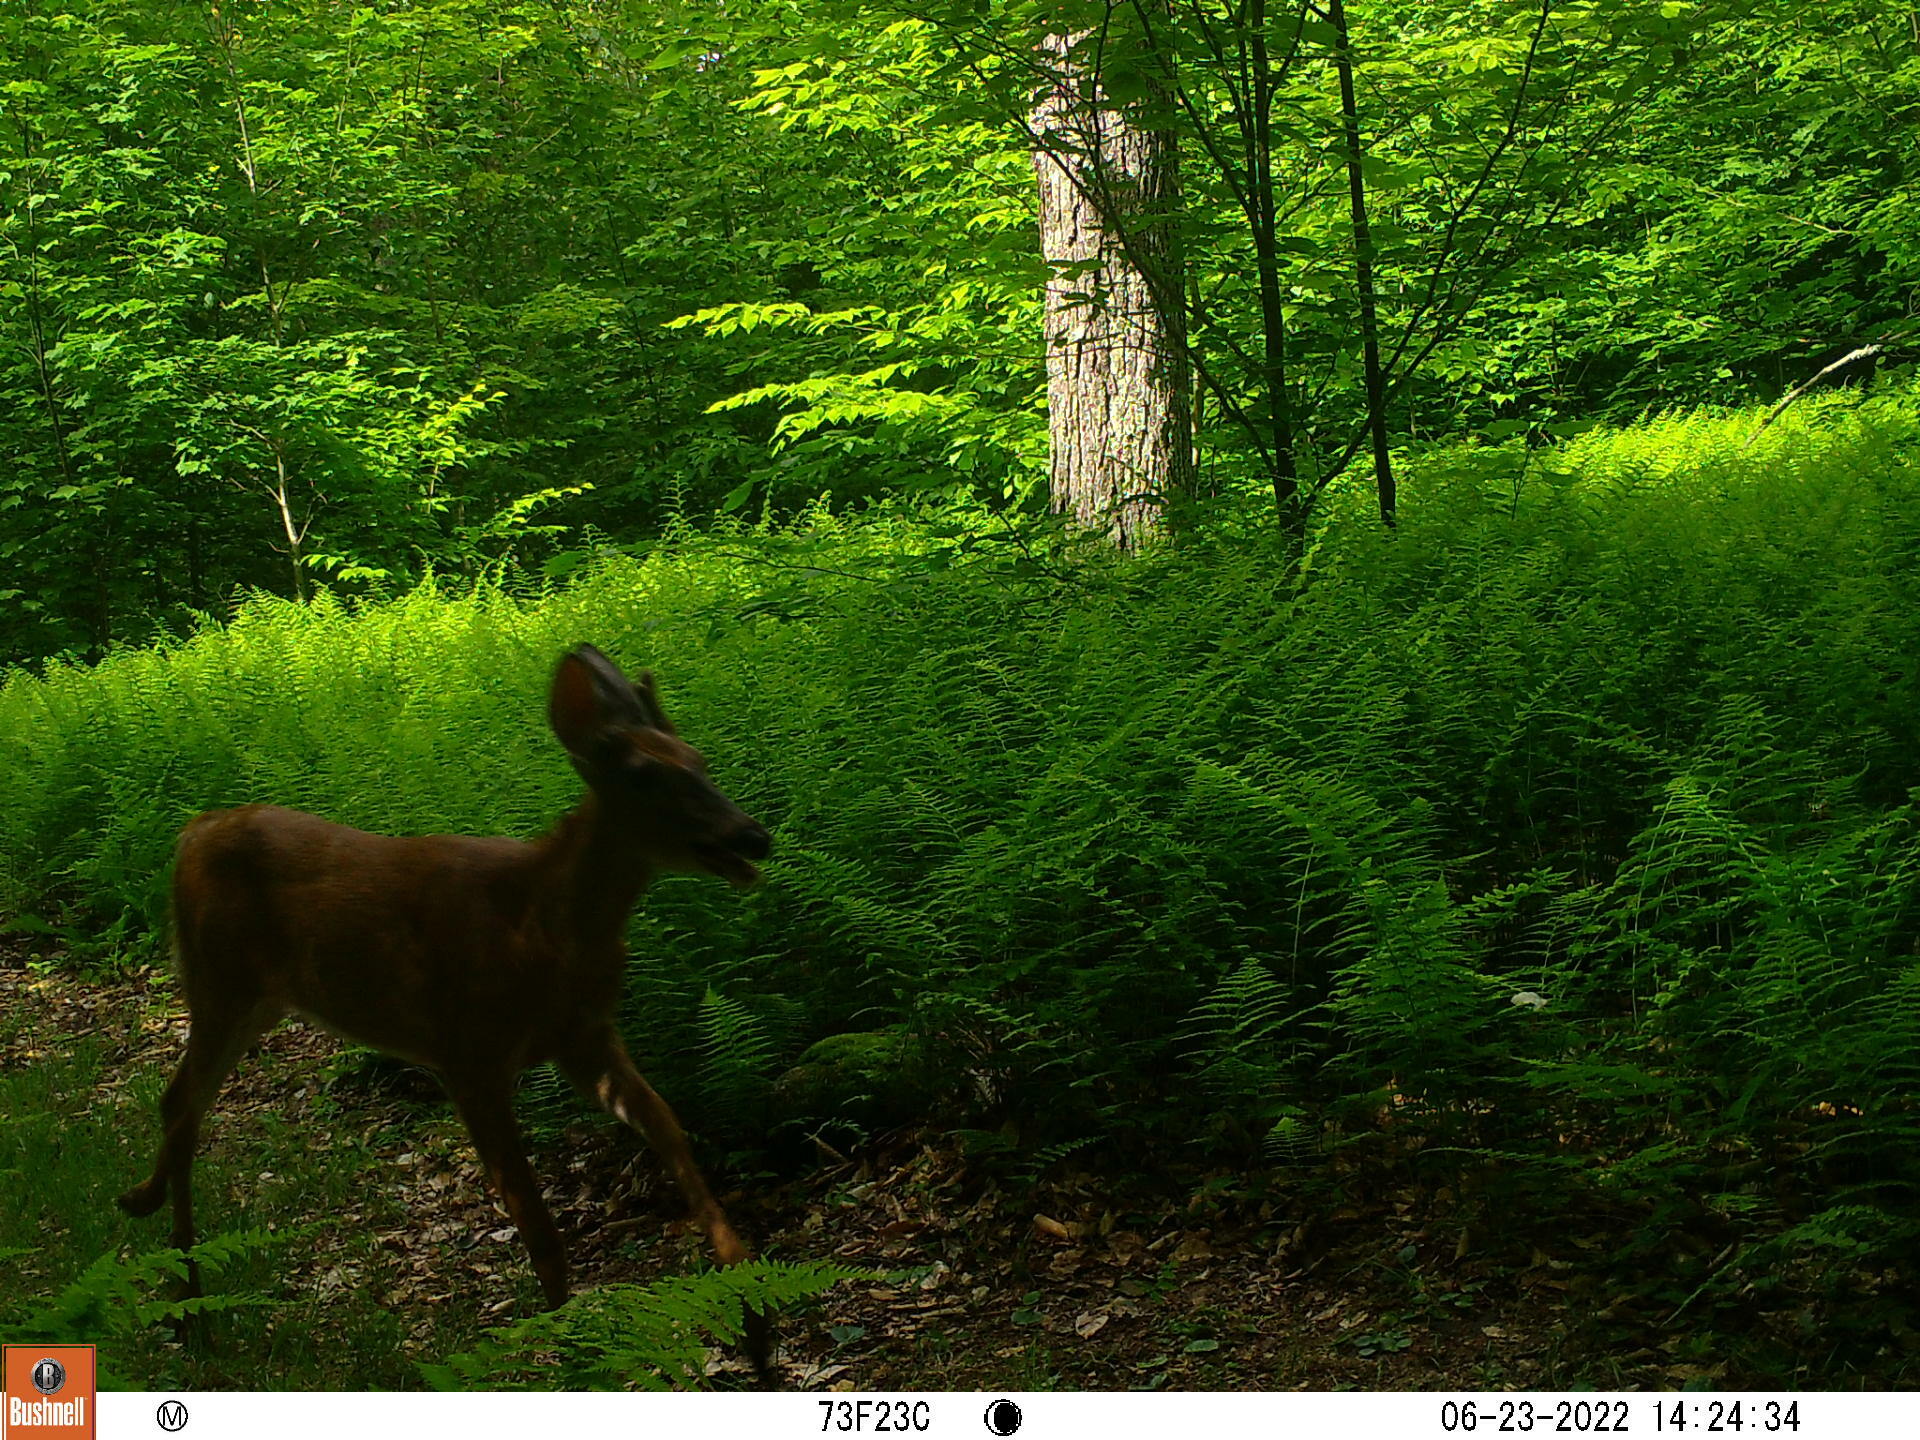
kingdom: Animalia
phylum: Chordata
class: Mammalia
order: Artiodactyla
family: Cervidae
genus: Odocoileus
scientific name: Odocoileus virginianus
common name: White-tailed deer
